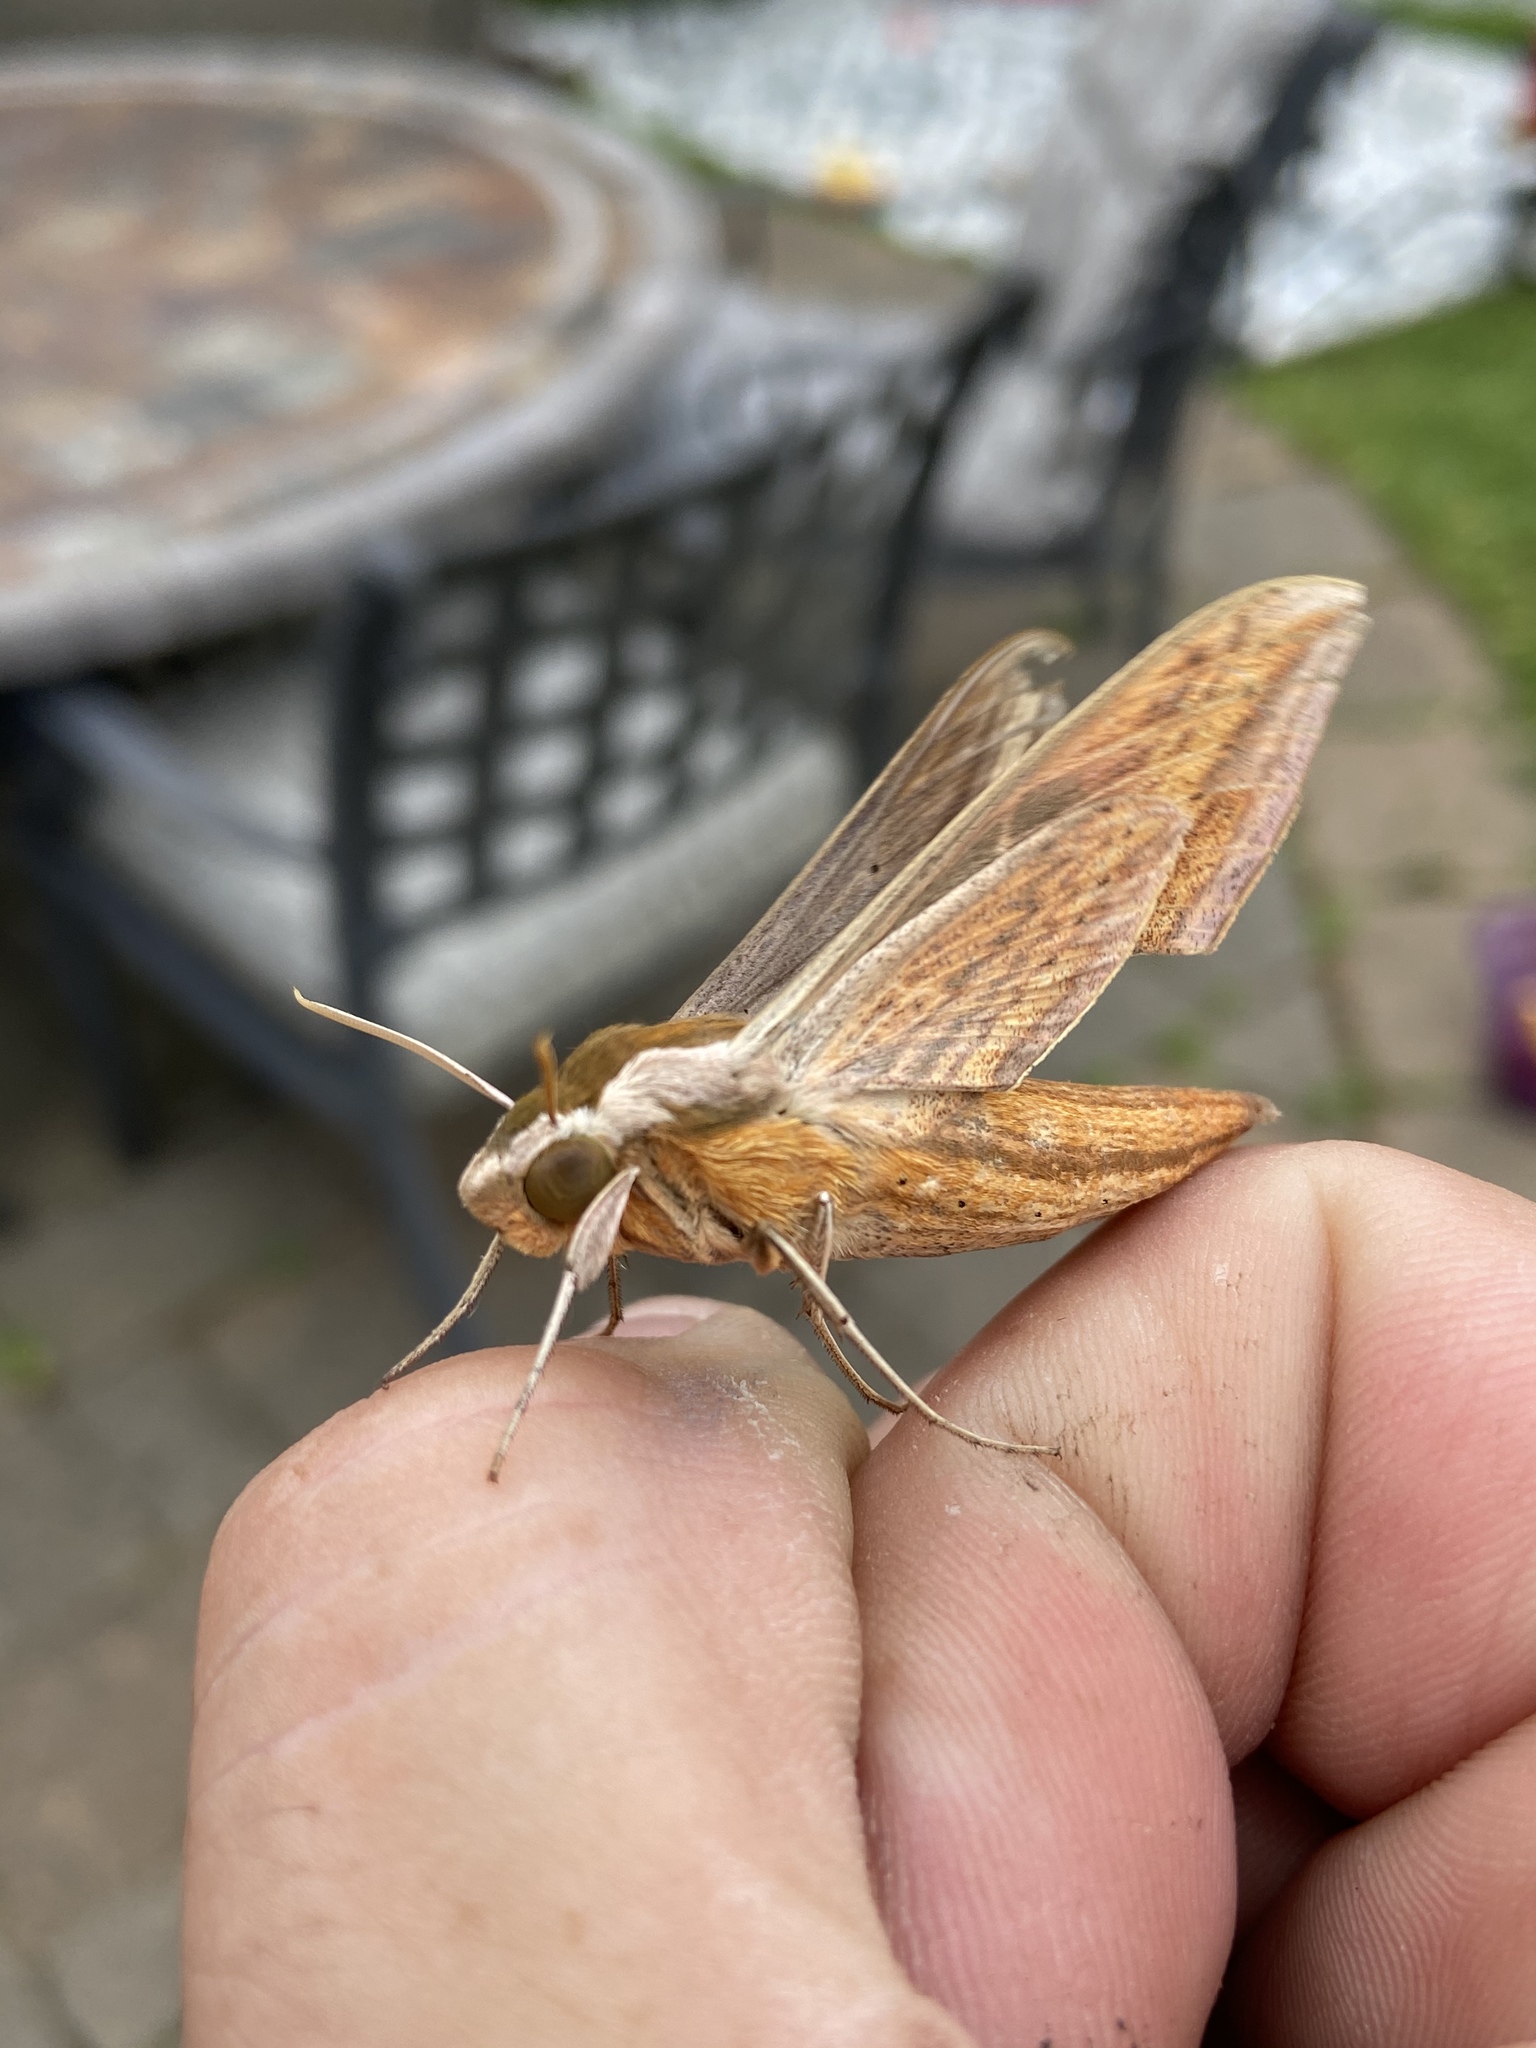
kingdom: Animalia
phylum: Arthropoda
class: Insecta
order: Lepidoptera
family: Sphingidae
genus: Xylophanes
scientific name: Xylophanes tersa
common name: Tersa sphinx
